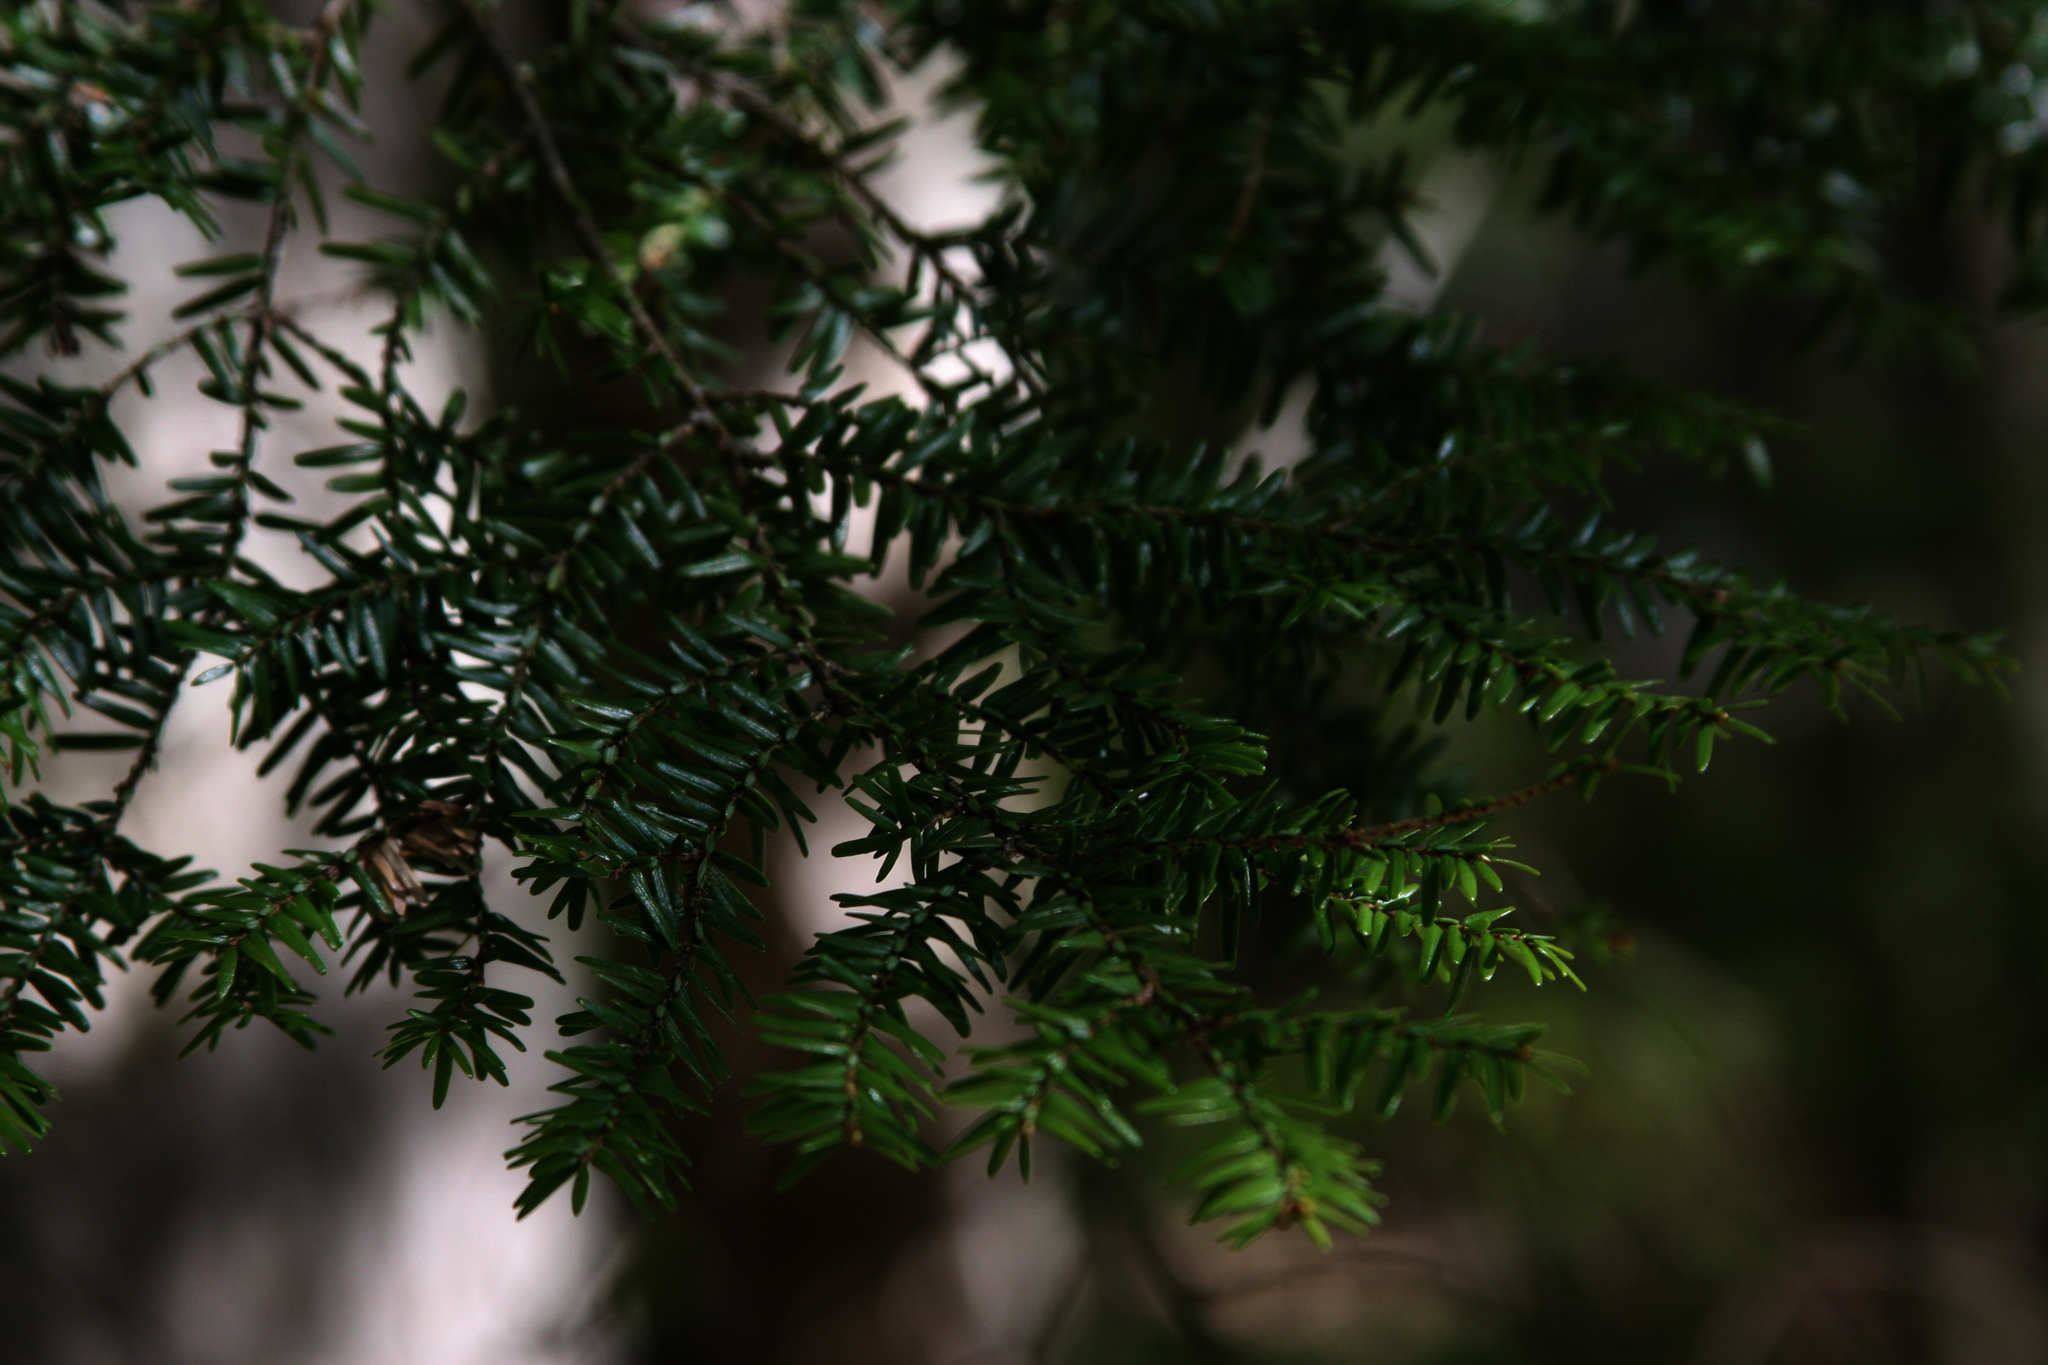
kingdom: Plantae
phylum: Tracheophyta
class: Pinopsida
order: Pinales
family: Pinaceae
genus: Tsuga
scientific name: Tsuga canadensis
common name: Eastern hemlock
